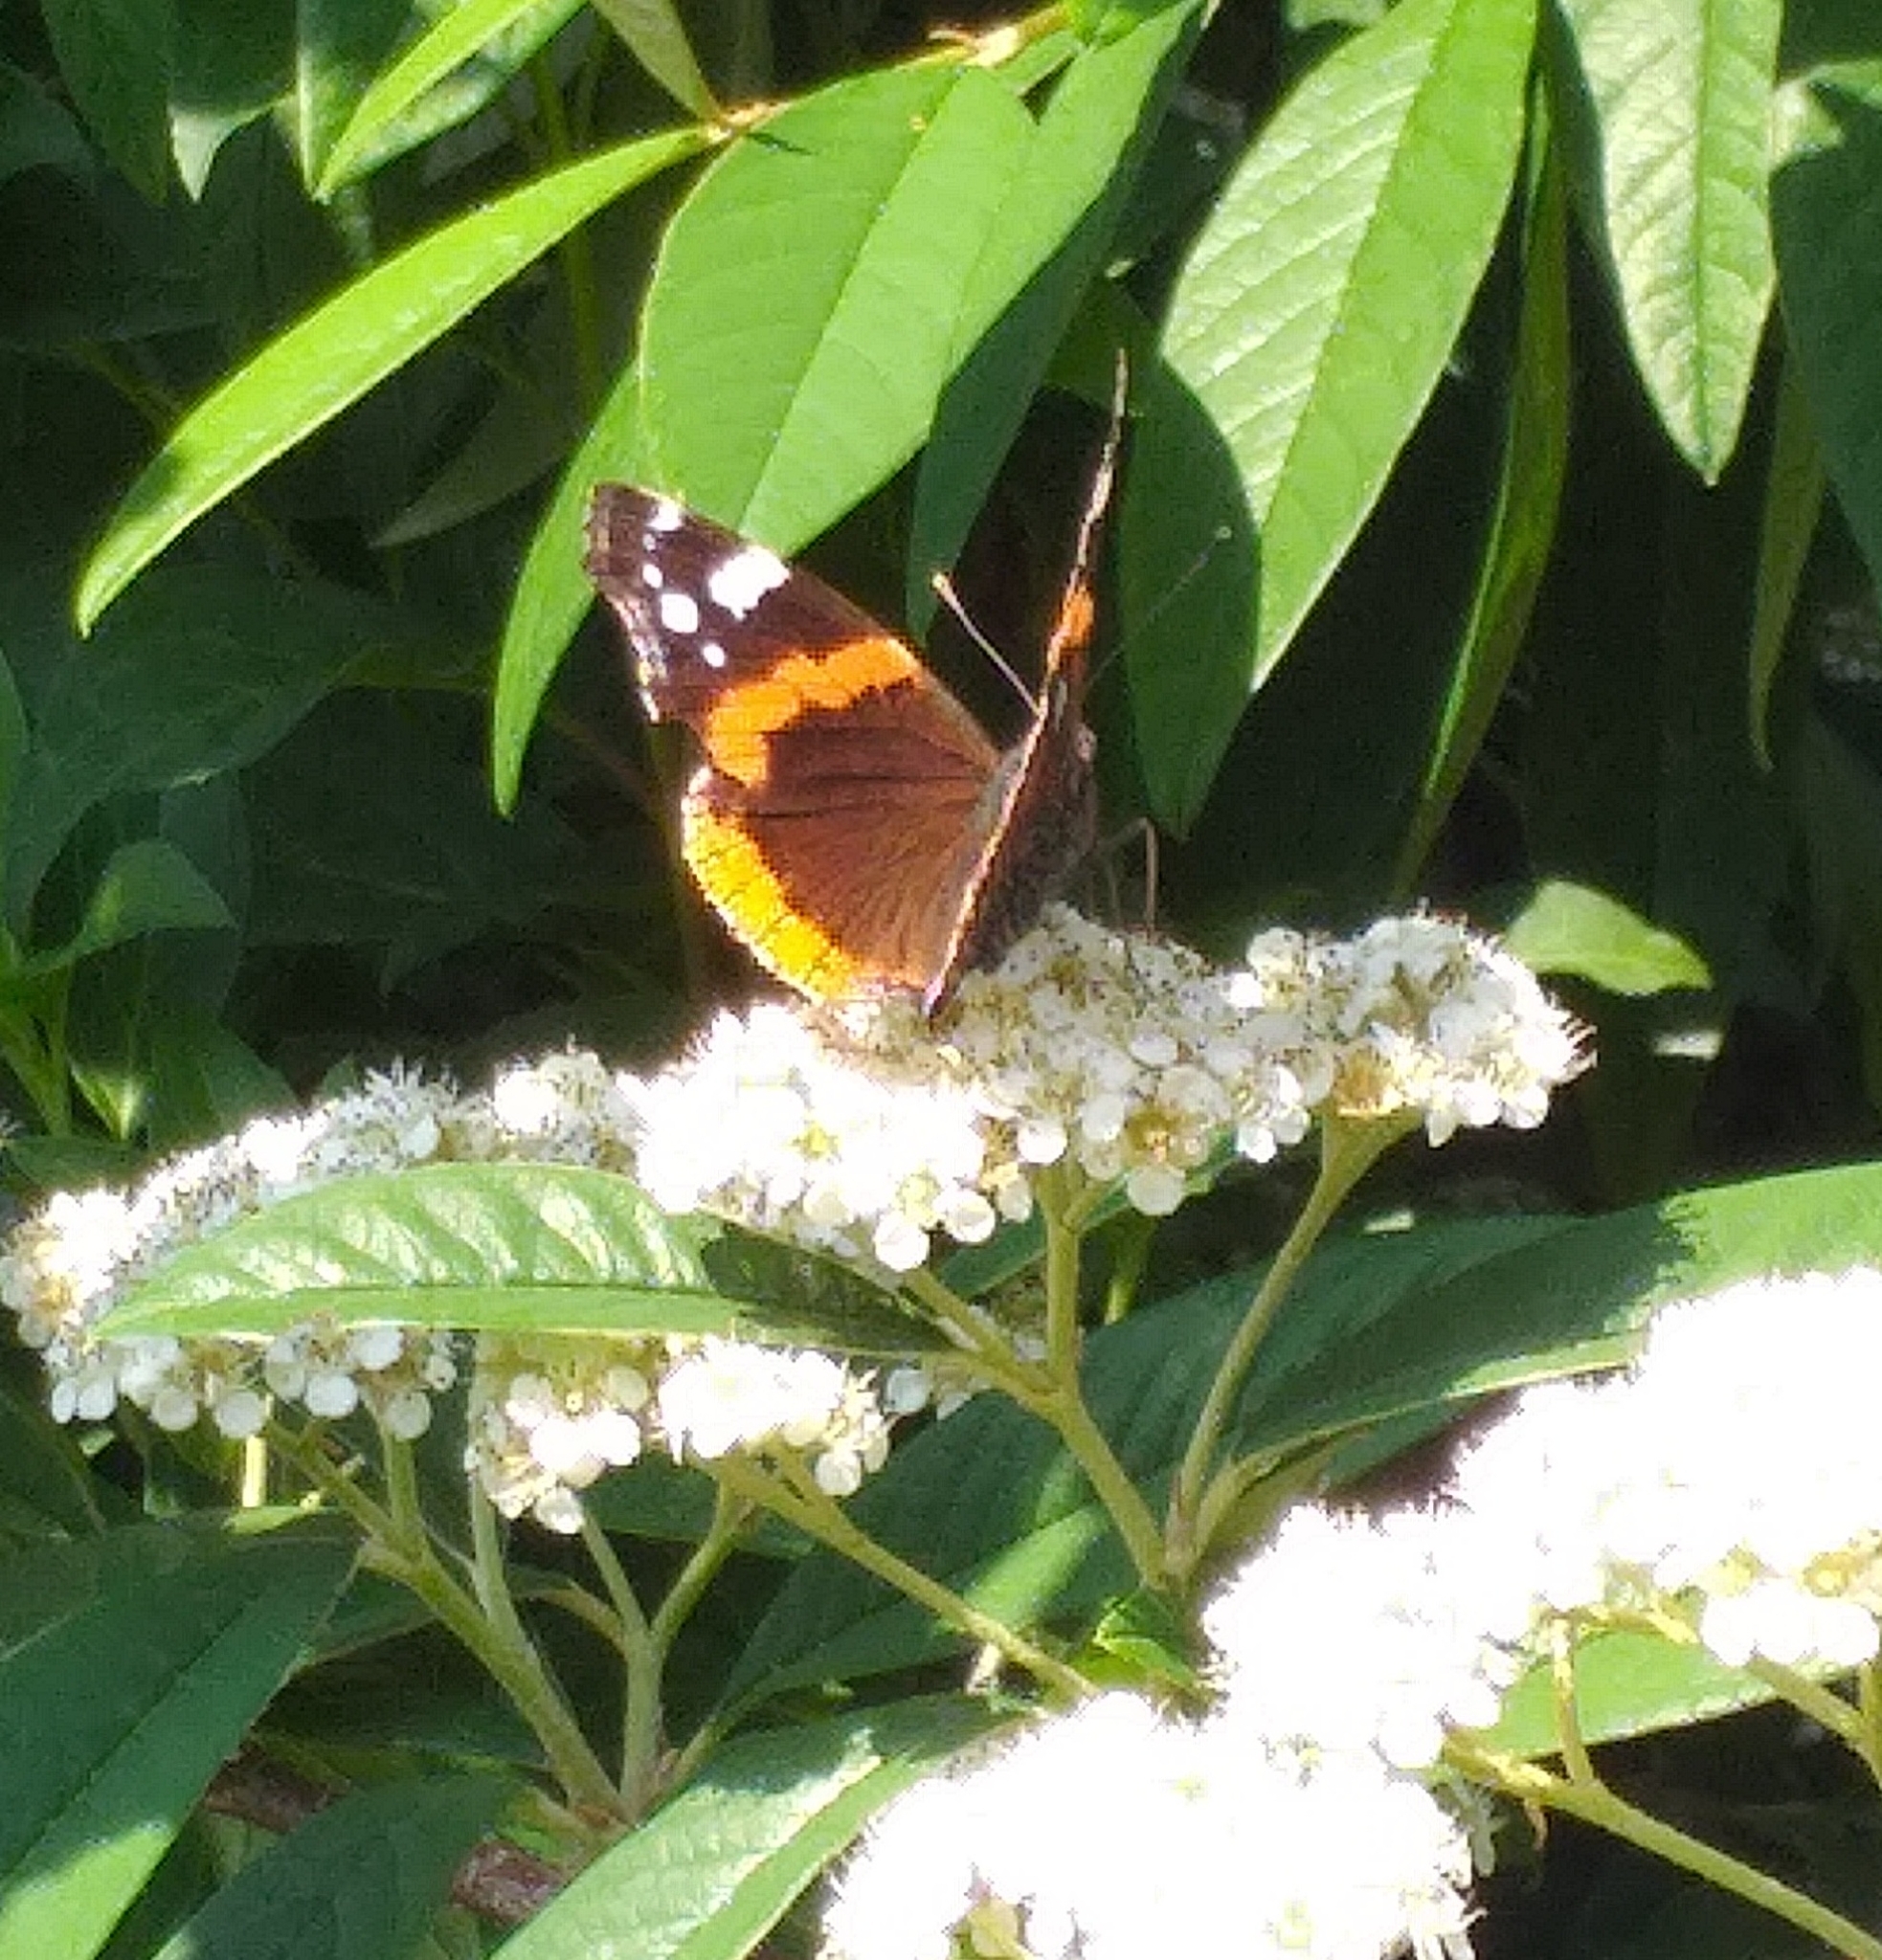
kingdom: Animalia
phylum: Arthropoda
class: Insecta
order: Lepidoptera
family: Nymphalidae
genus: Vanessa
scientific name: Vanessa atalanta
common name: Red admiral
